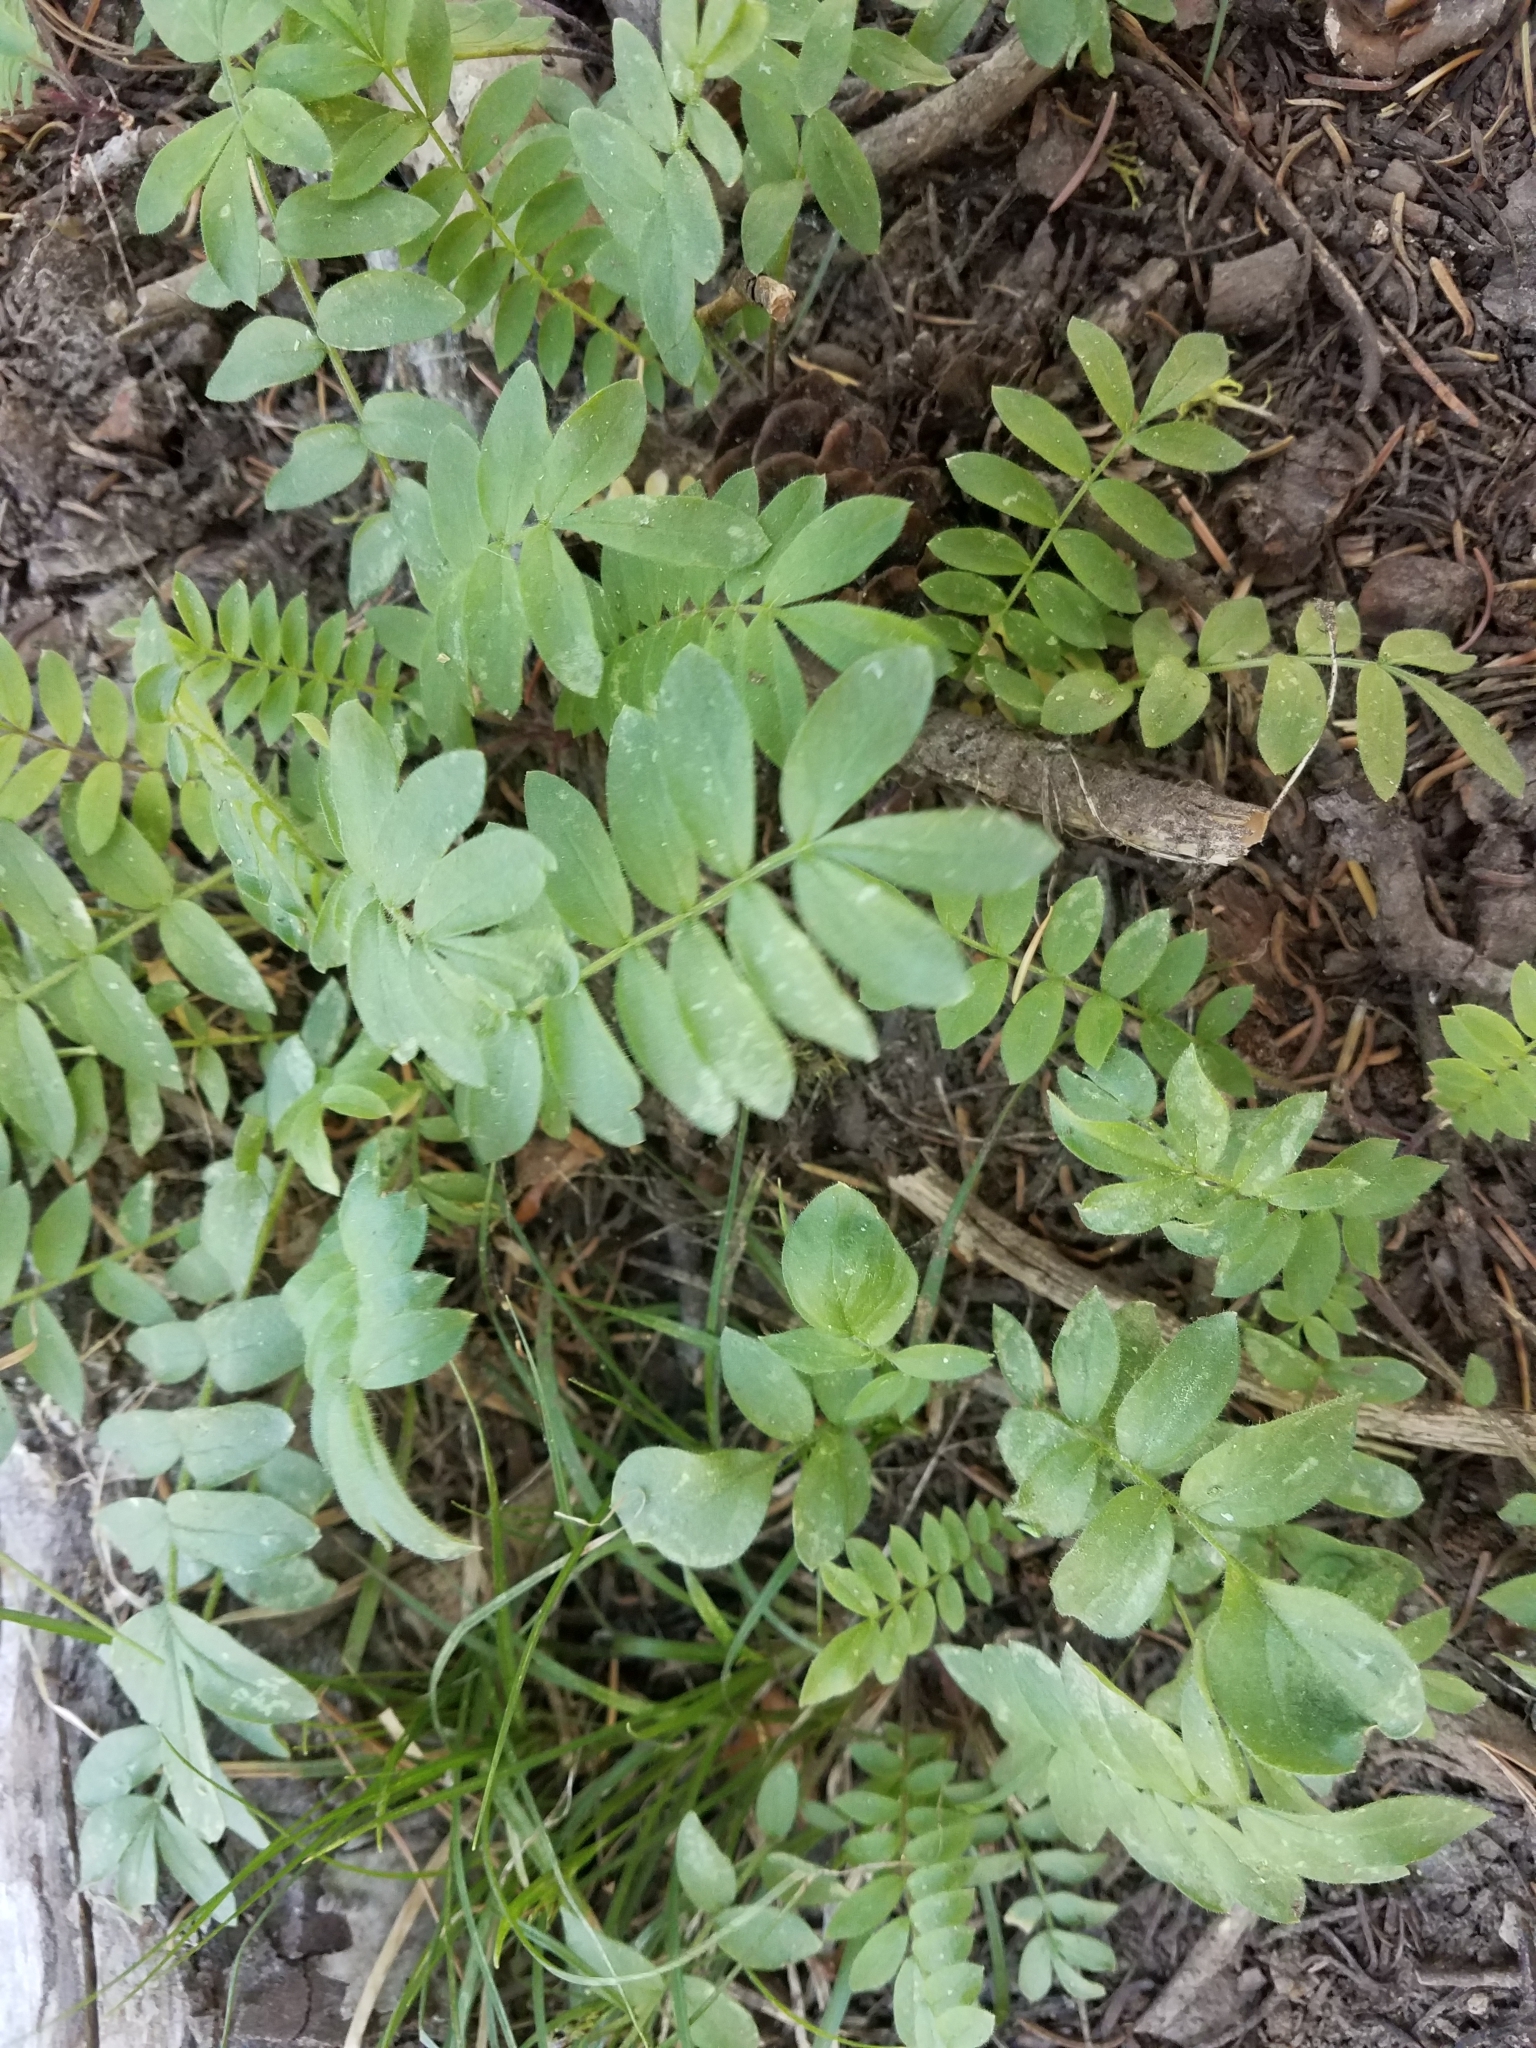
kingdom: Plantae
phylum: Tracheophyta
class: Magnoliopsida
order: Ericales
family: Polemoniaceae
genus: Polemonium
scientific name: Polemonium californicum
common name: California jacob's ladder
